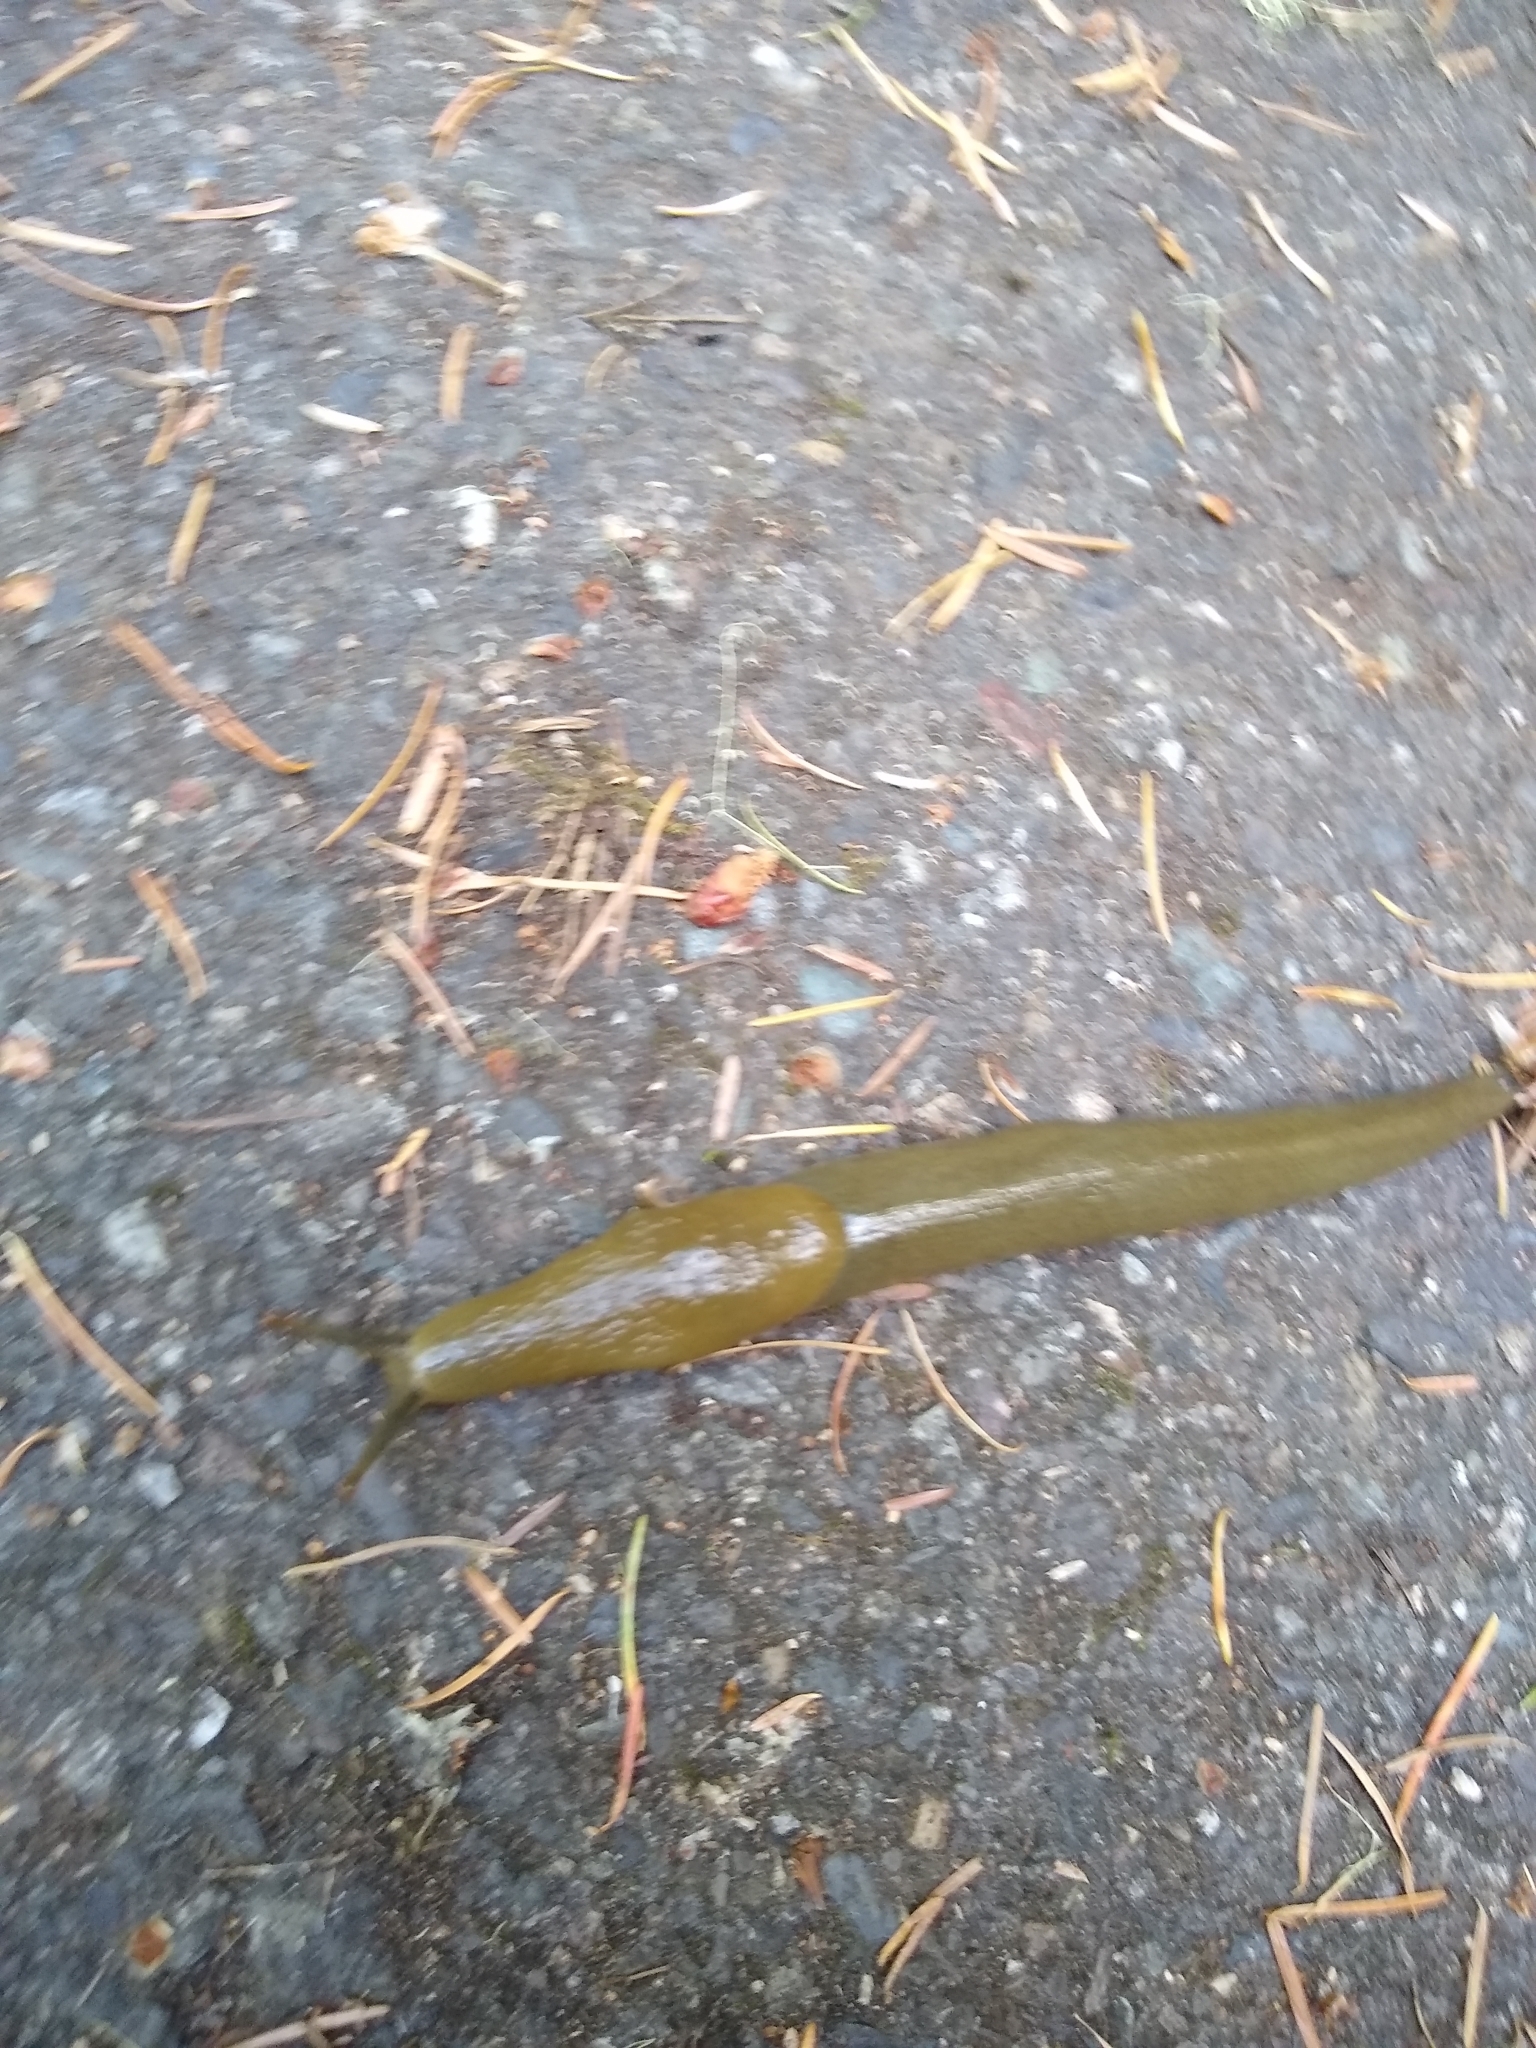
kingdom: Animalia
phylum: Mollusca
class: Gastropoda
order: Stylommatophora
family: Ariolimacidae
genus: Ariolimax
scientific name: Ariolimax columbianus
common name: Pacific banana slug
